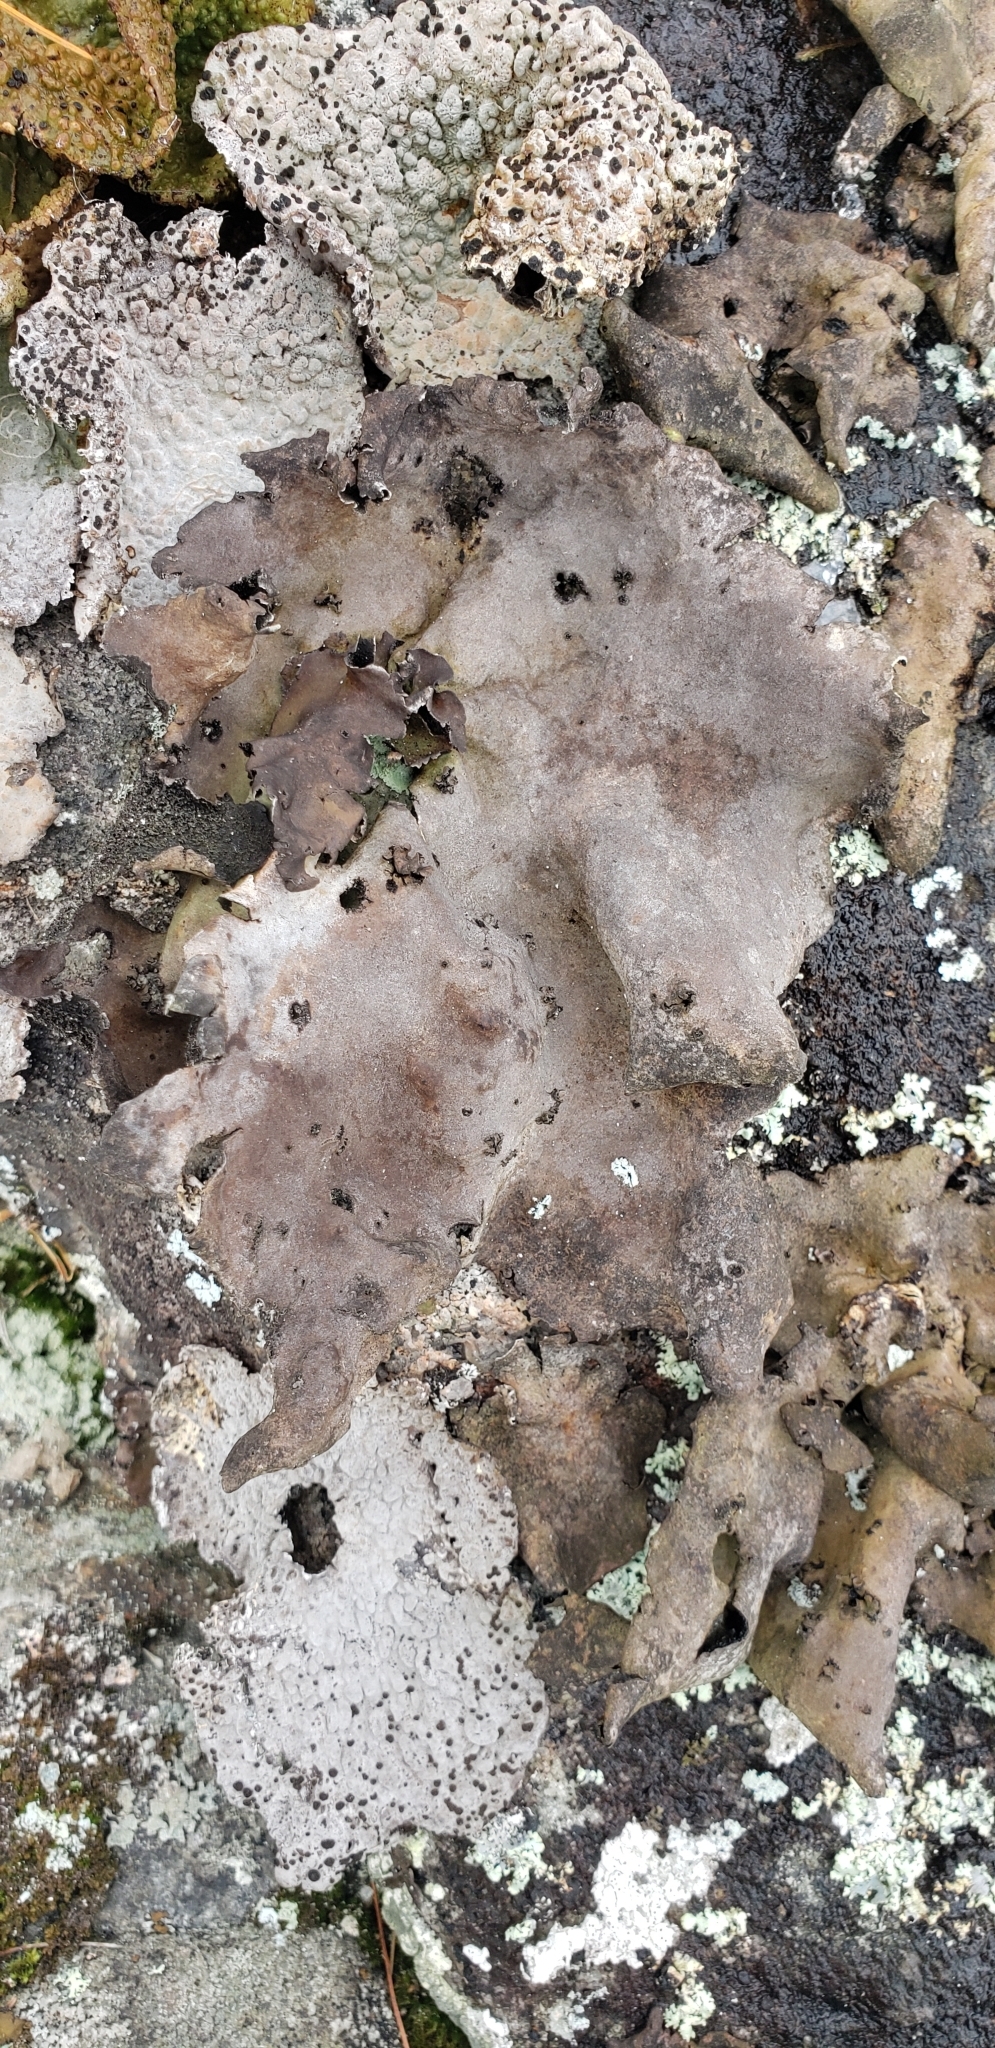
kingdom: Fungi
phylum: Ascomycota
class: Lecanoromycetes
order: Umbilicariales
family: Umbilicariaceae
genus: Umbilicaria
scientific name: Umbilicaria mammulata
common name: Smooth rock tripe
